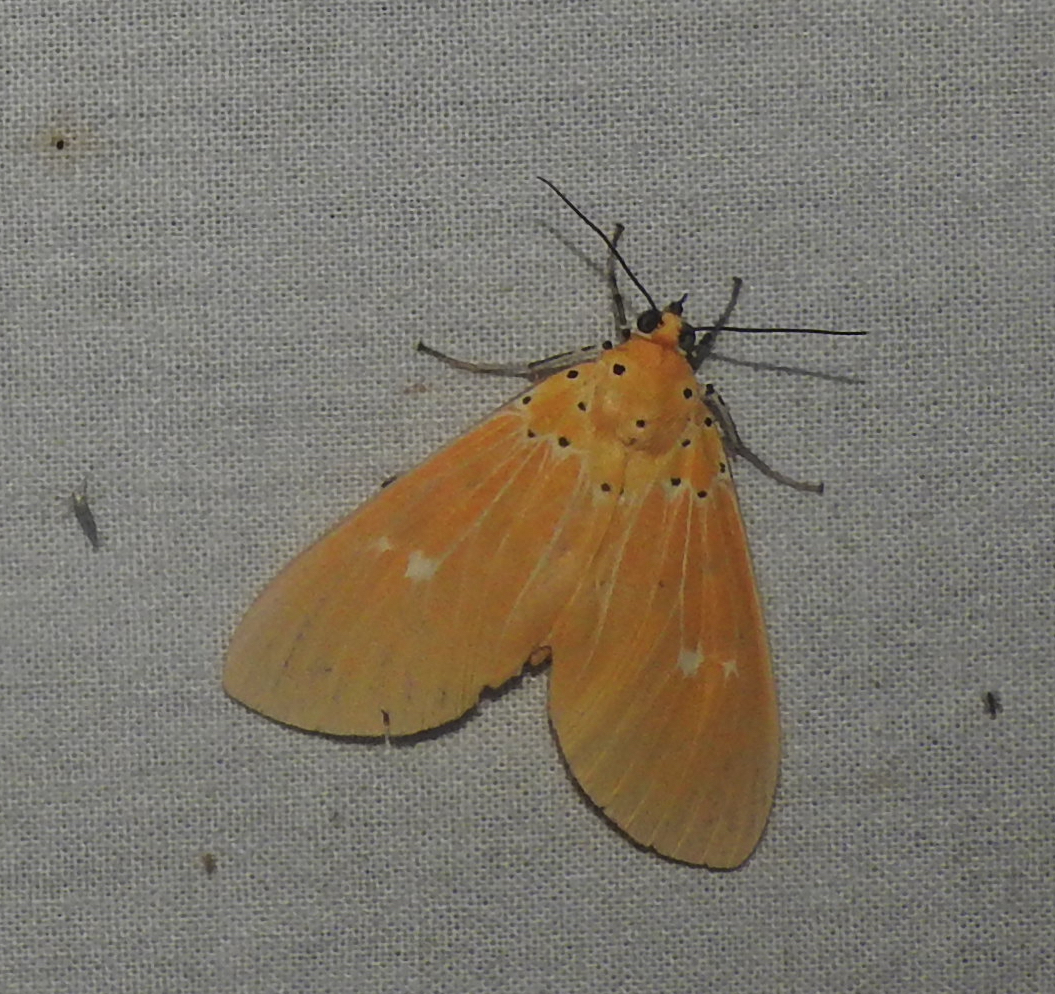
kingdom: Animalia
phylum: Arthropoda
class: Insecta
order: Lepidoptera
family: Erebidae
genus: Asota
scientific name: Asota sericea
